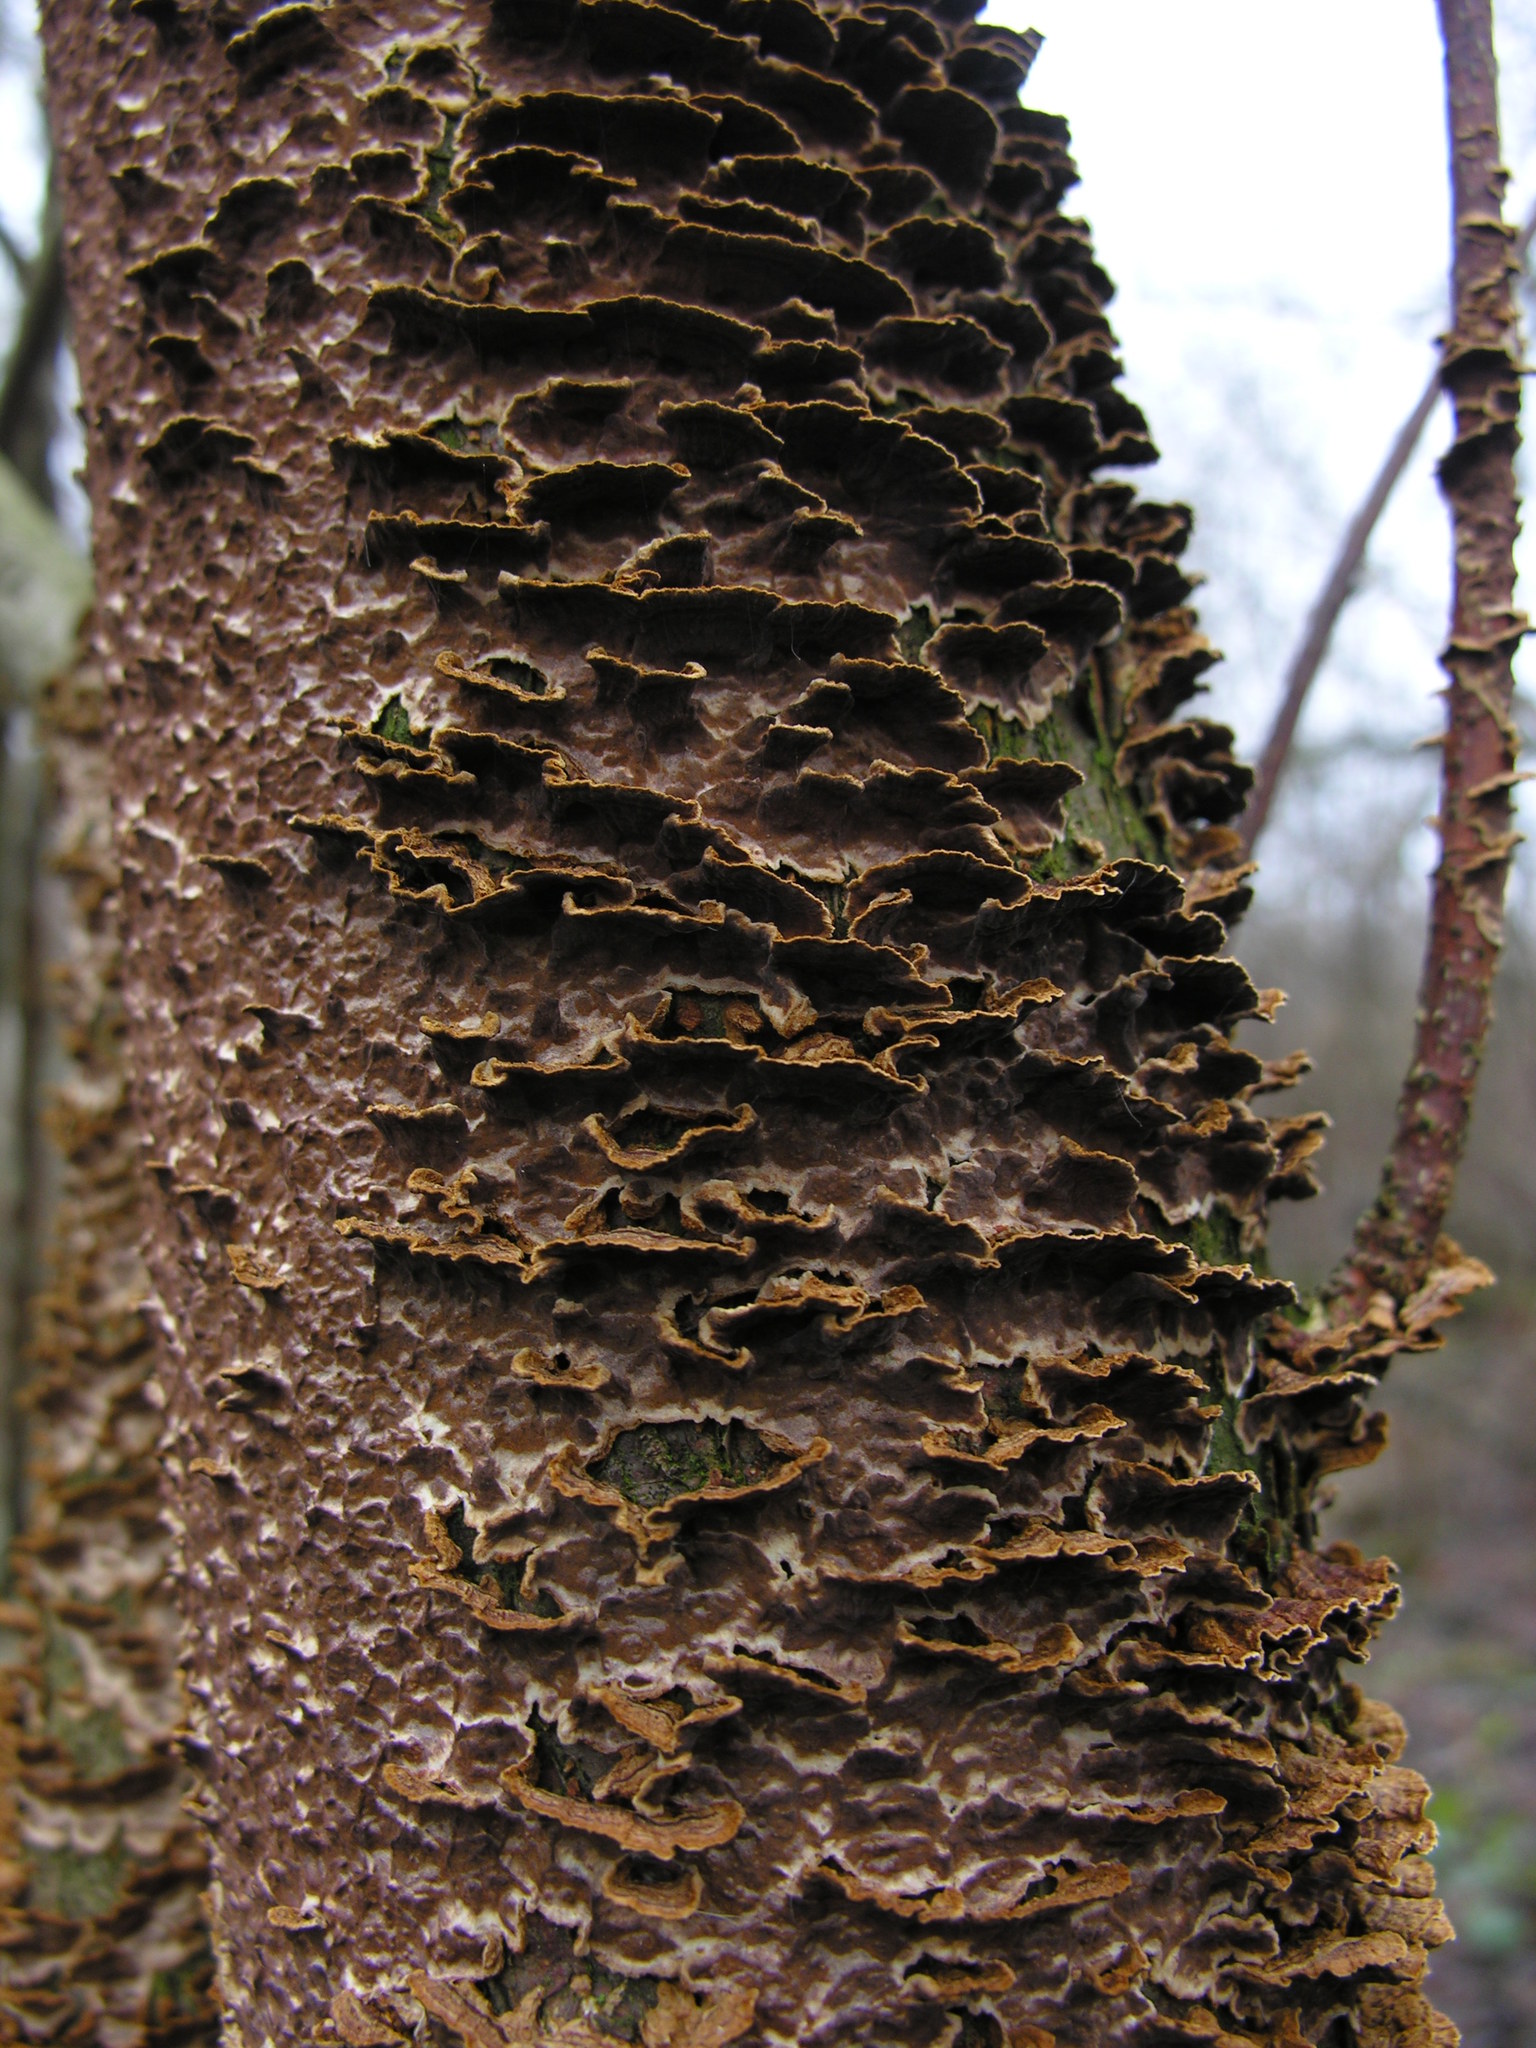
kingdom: Fungi
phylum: Basidiomycota
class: Agaricomycetes
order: Hymenochaetales
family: Hymenochaetaceae
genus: Hydnoporia
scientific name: Hydnoporia tabacina
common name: Willow glue
